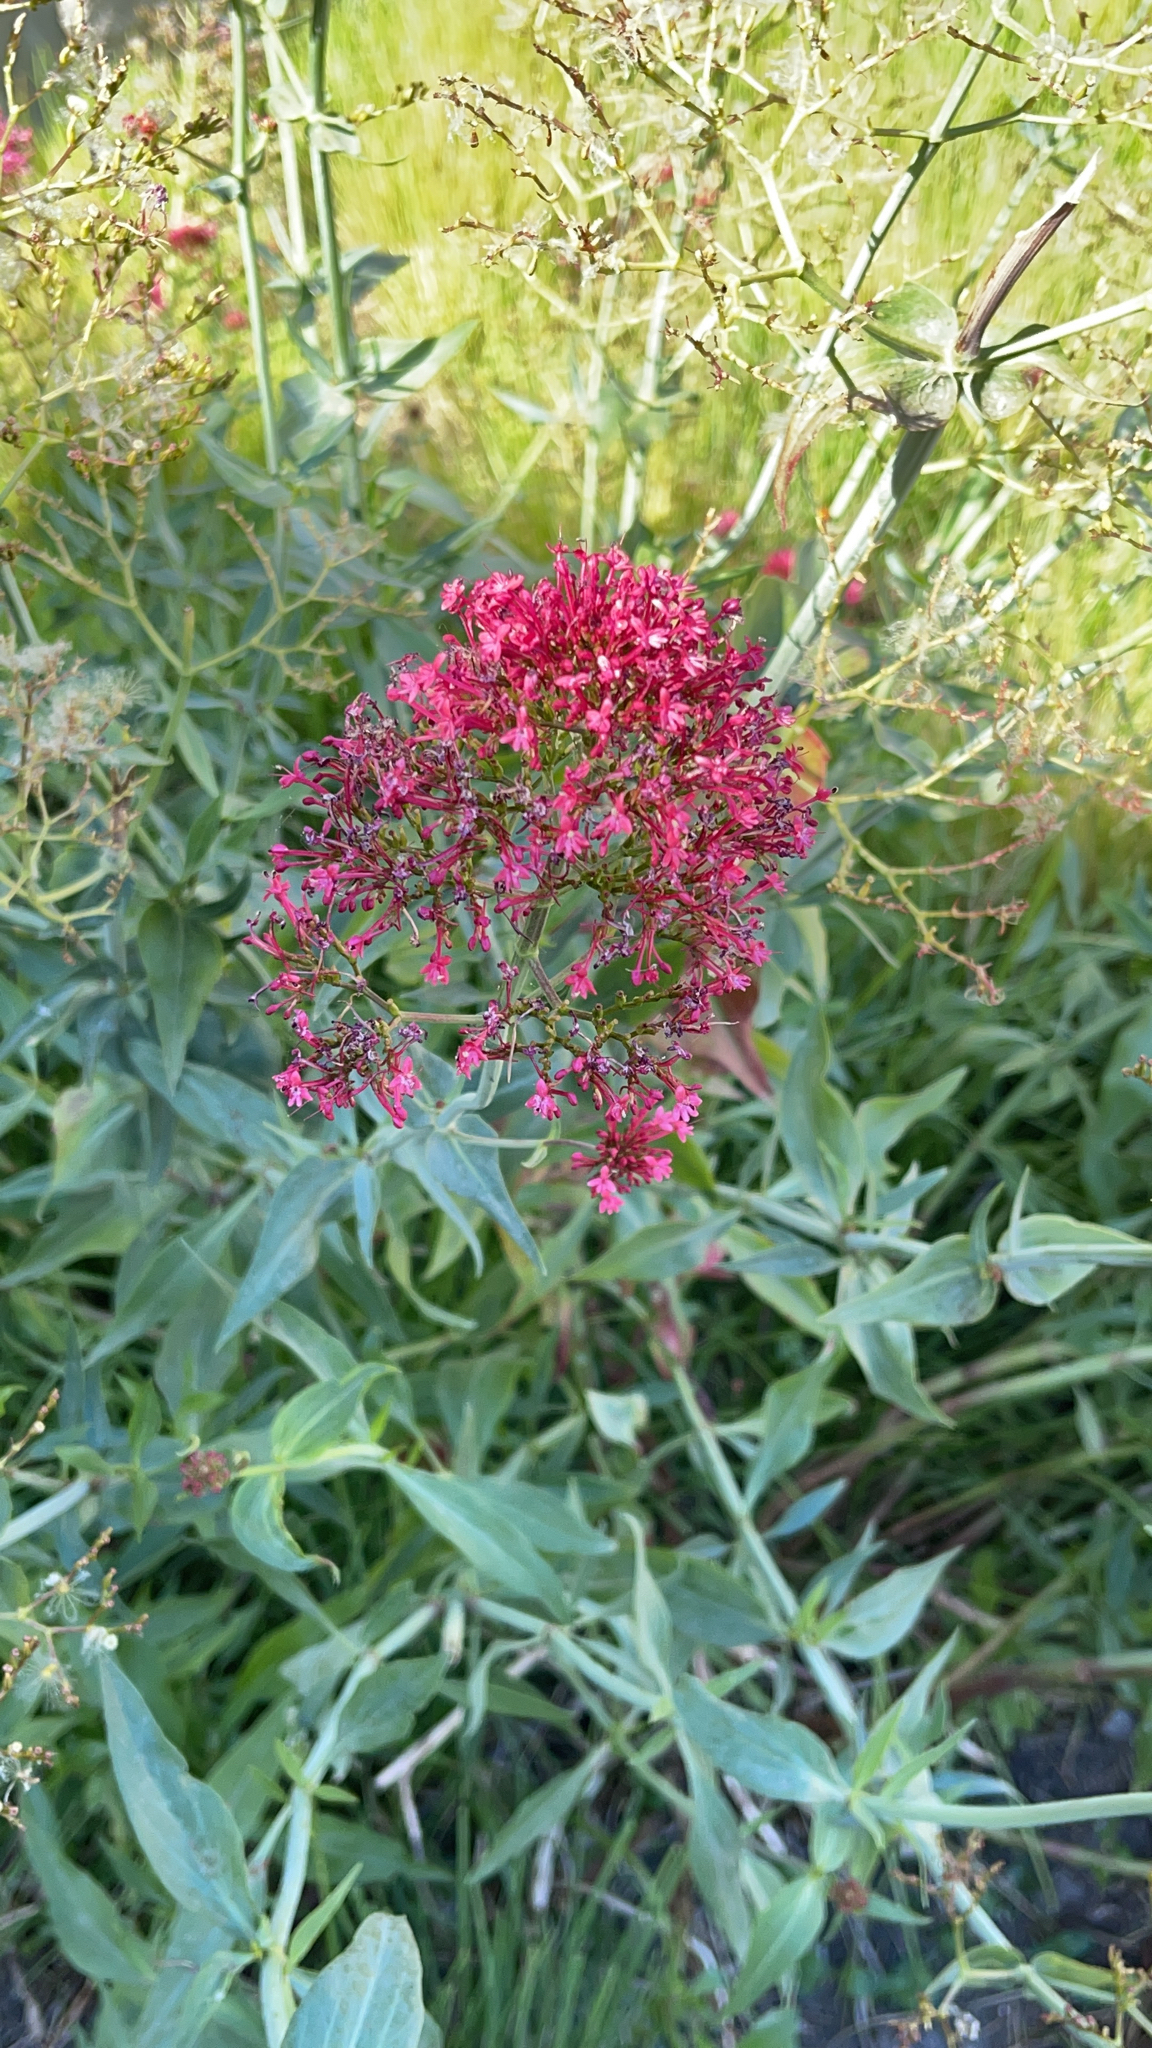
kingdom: Plantae
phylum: Tracheophyta
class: Magnoliopsida
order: Dipsacales
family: Caprifoliaceae
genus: Centranthus
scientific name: Centranthus ruber
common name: Red valerian
